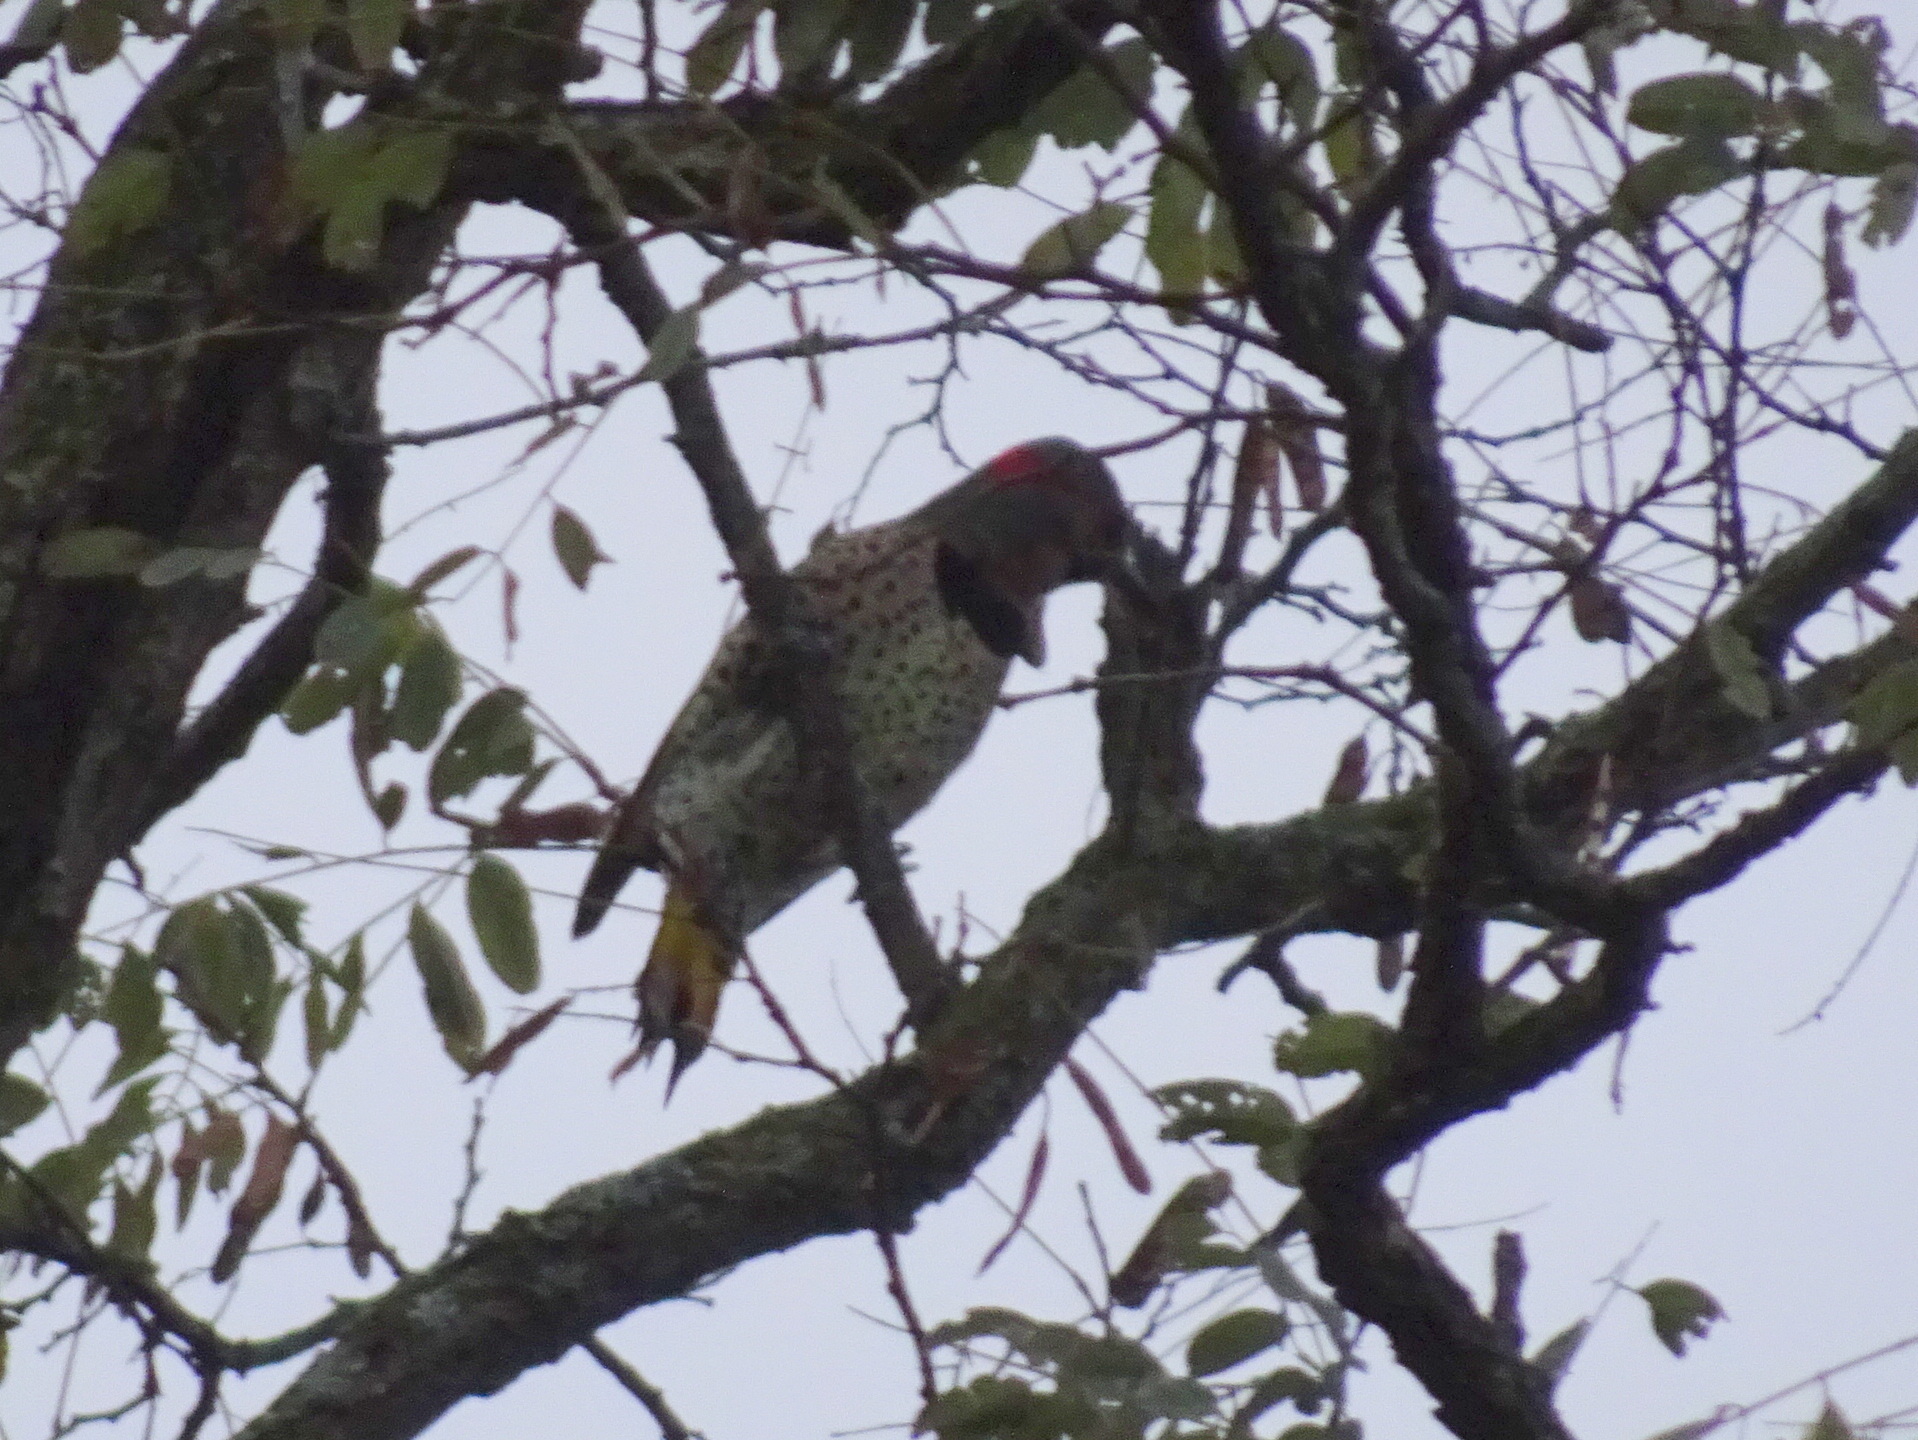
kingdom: Animalia
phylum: Chordata
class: Aves
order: Piciformes
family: Picidae
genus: Colaptes
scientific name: Colaptes auratus
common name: Northern flicker
